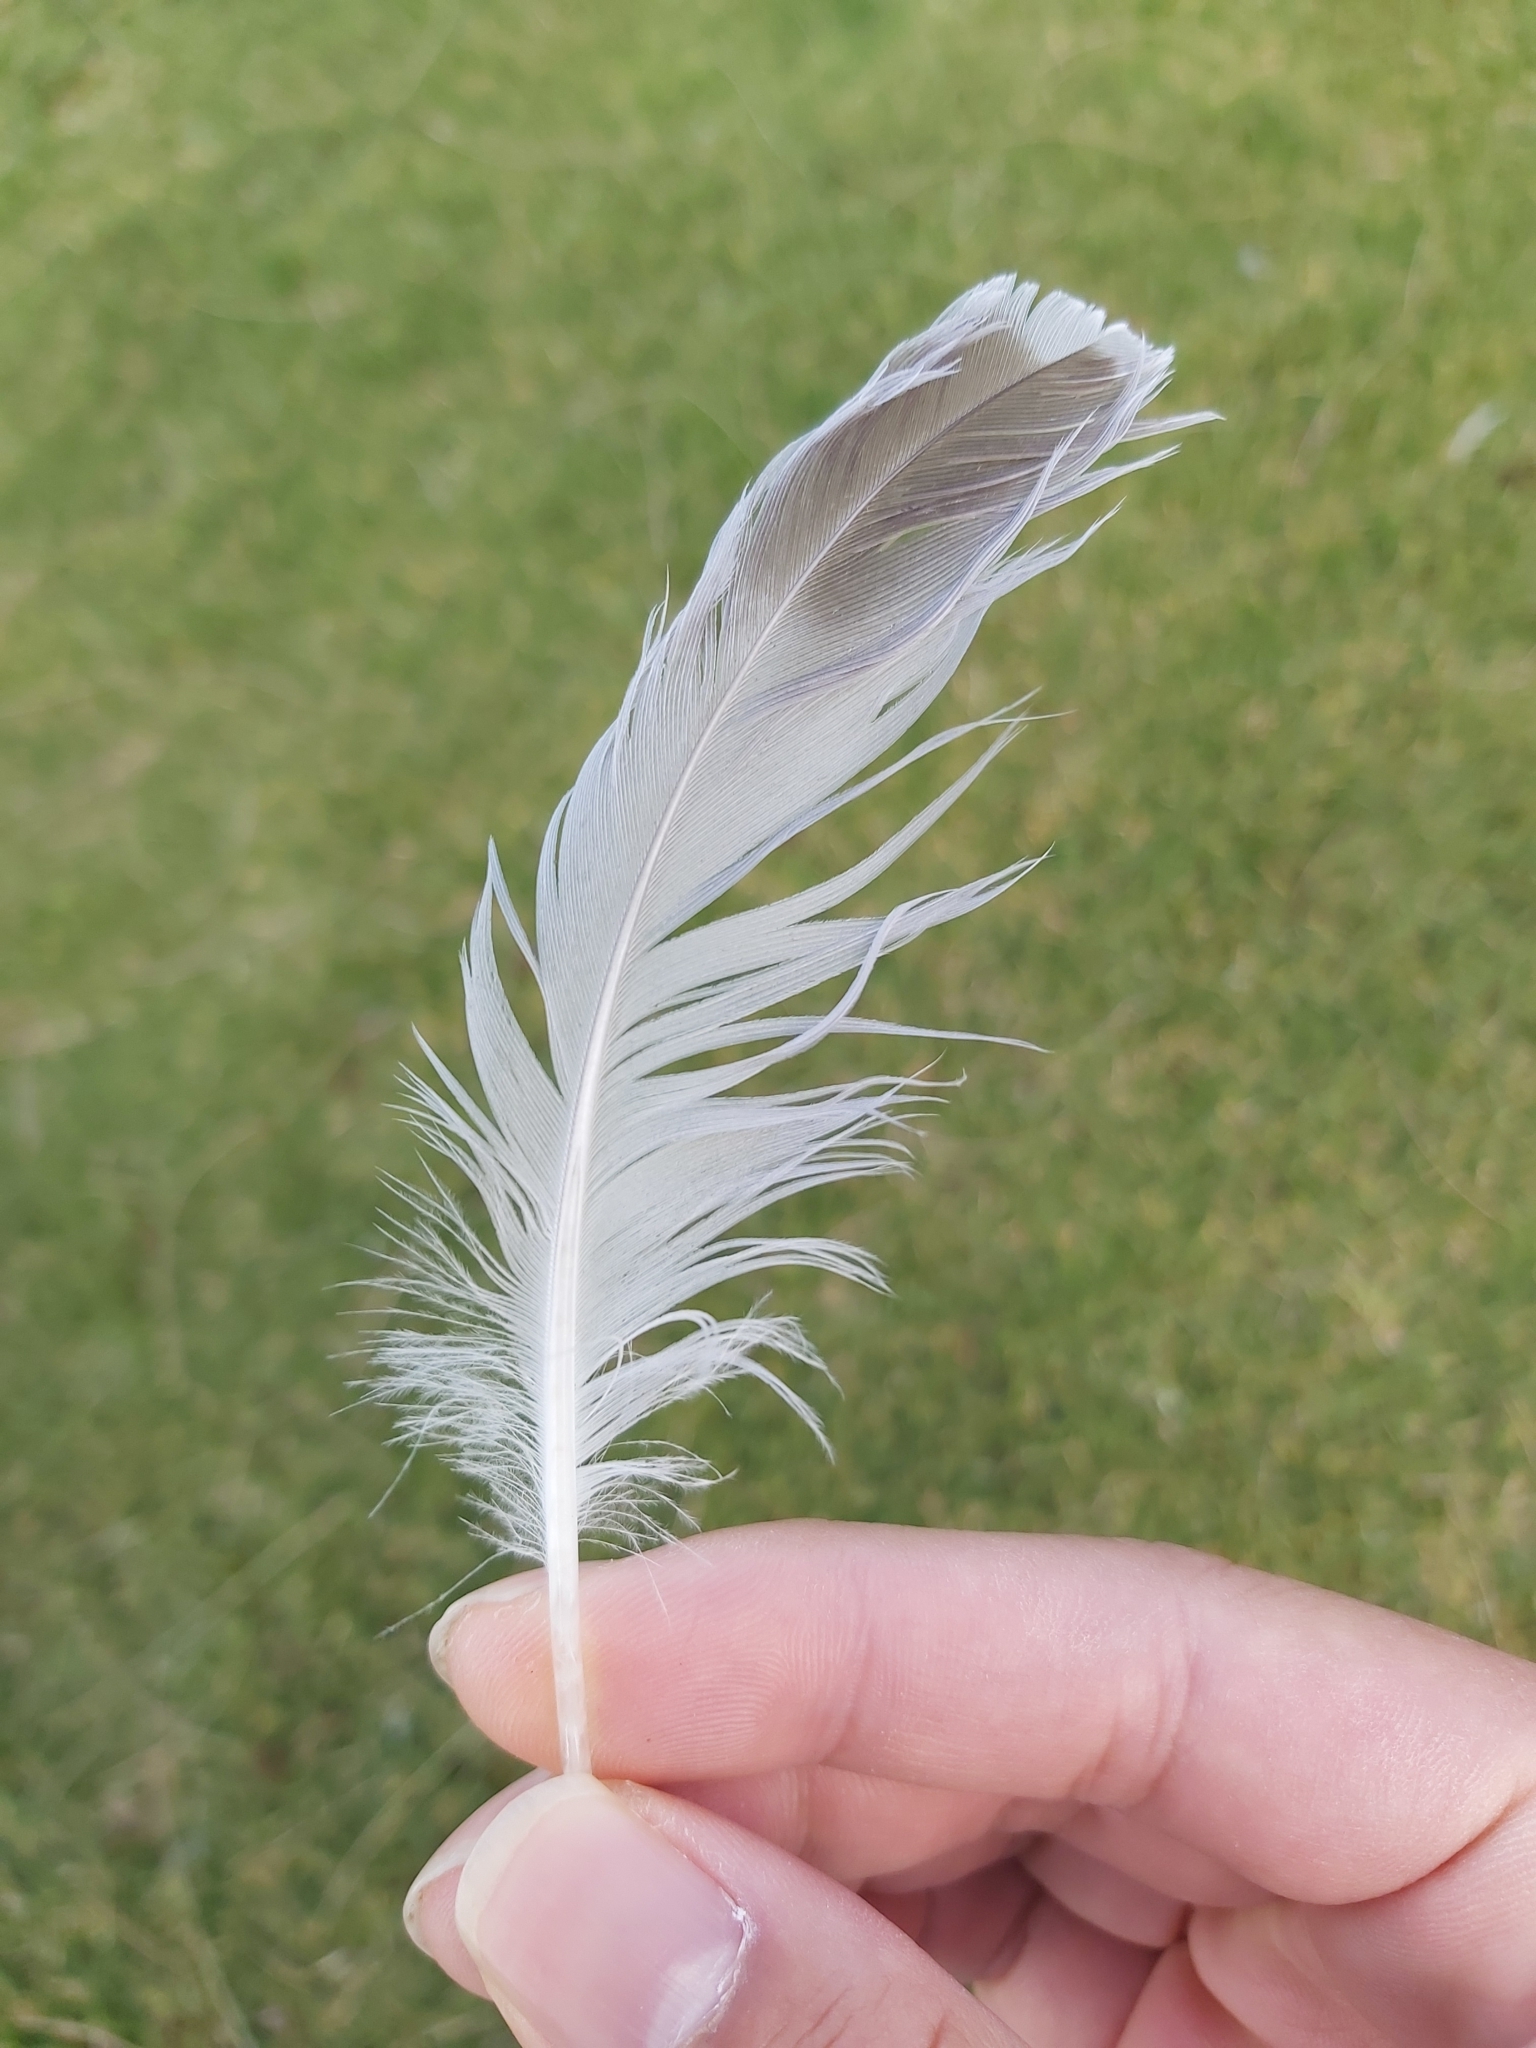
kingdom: Animalia
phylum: Chordata
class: Aves
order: Charadriiformes
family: Laridae
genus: Chroicocephalus
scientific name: Chroicocephalus novaehollandiae
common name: Silver gull
